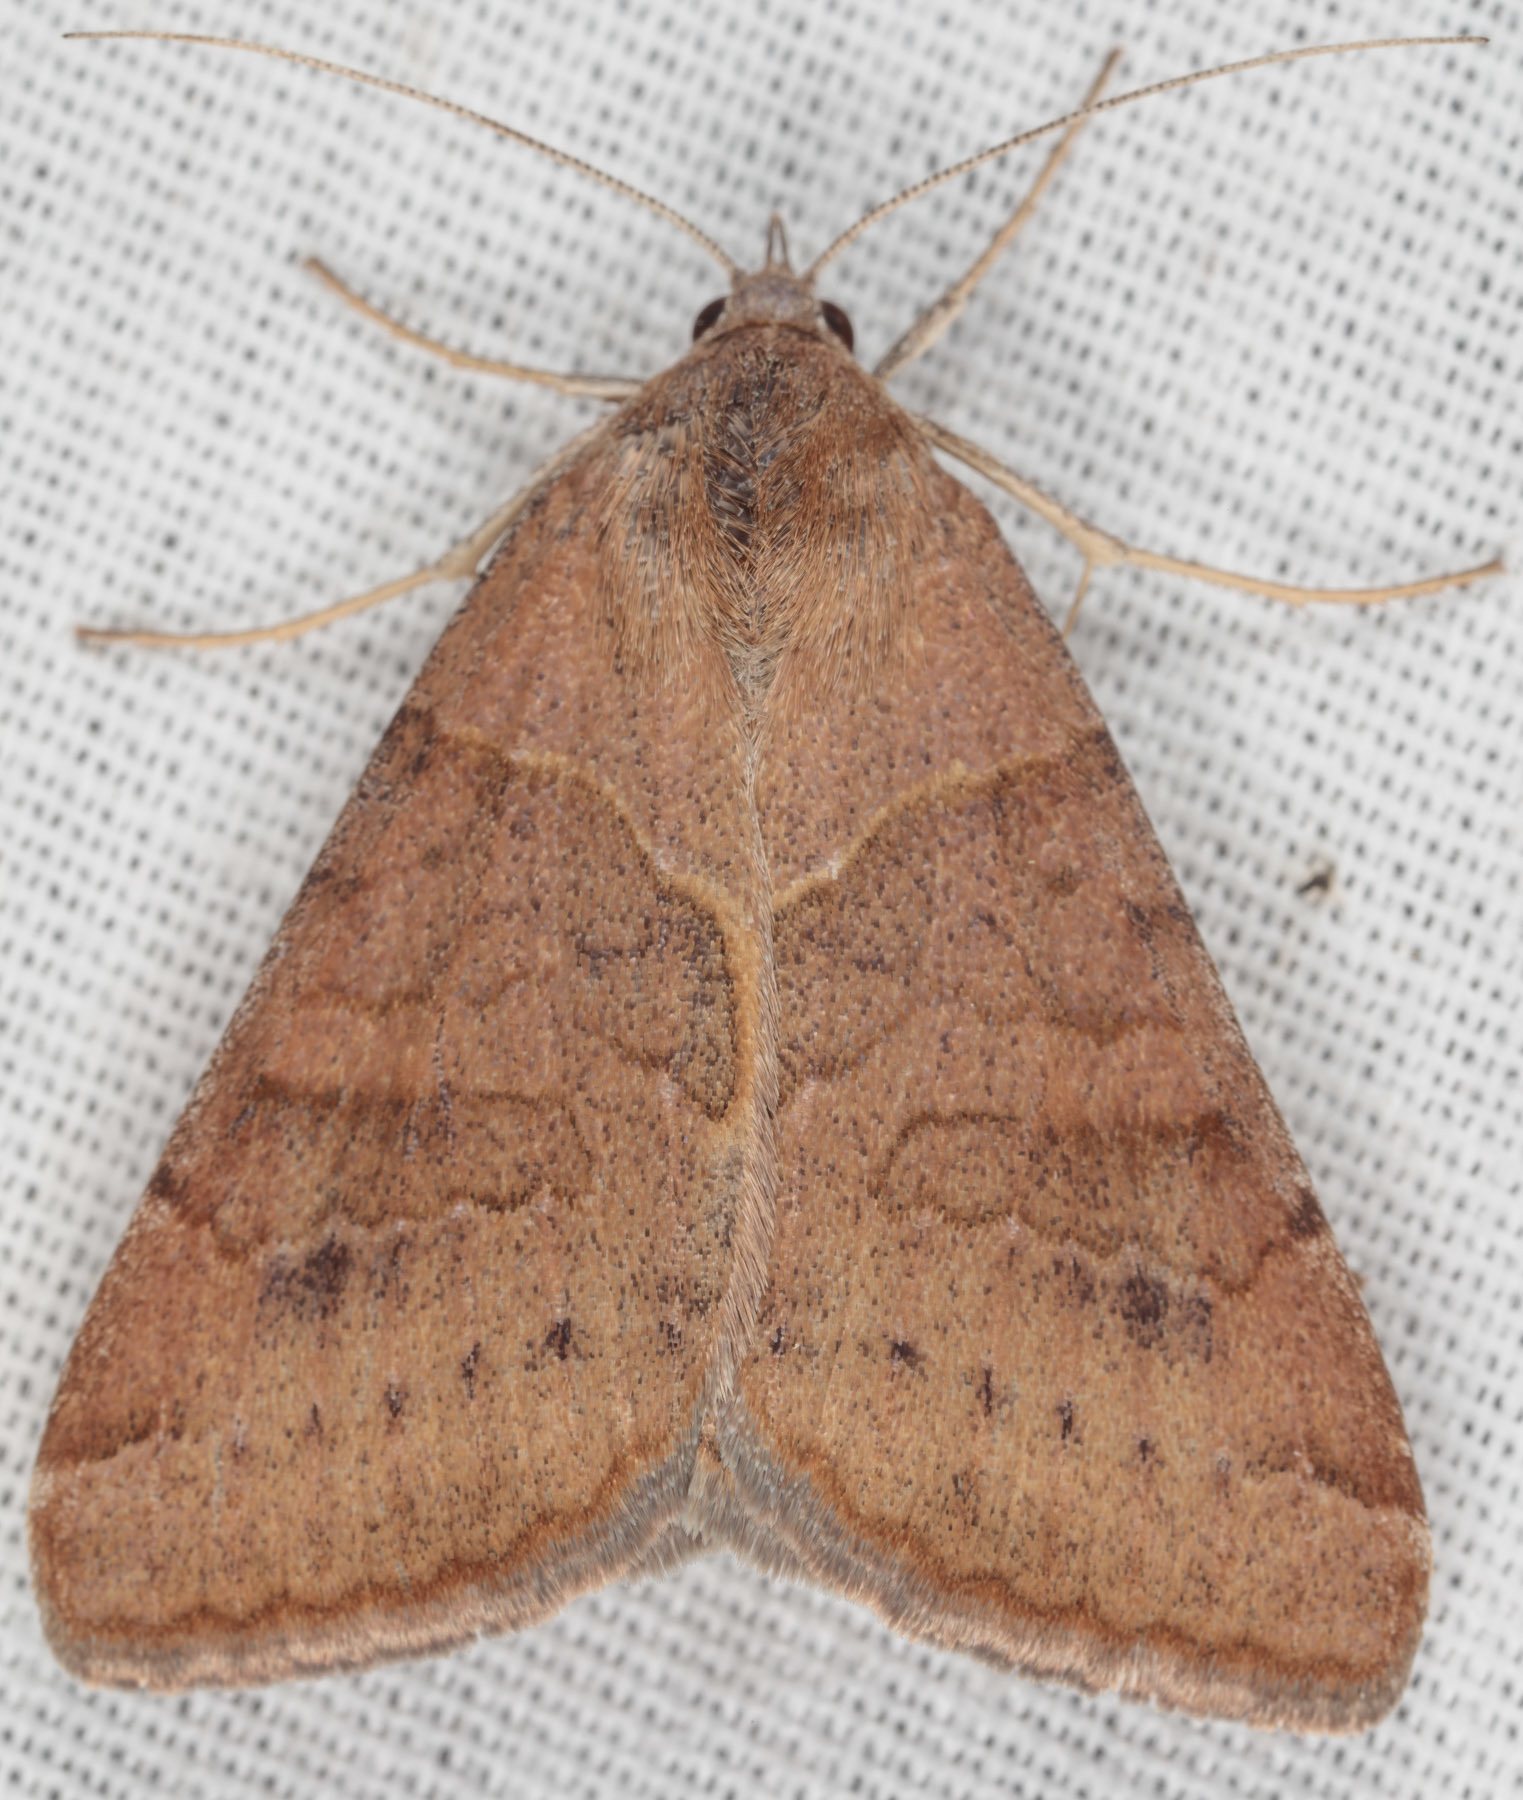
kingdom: Animalia
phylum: Arthropoda
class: Insecta
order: Lepidoptera
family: Erebidae
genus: Caenurgina
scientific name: Caenurgina erechtea
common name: Forage looper moth
